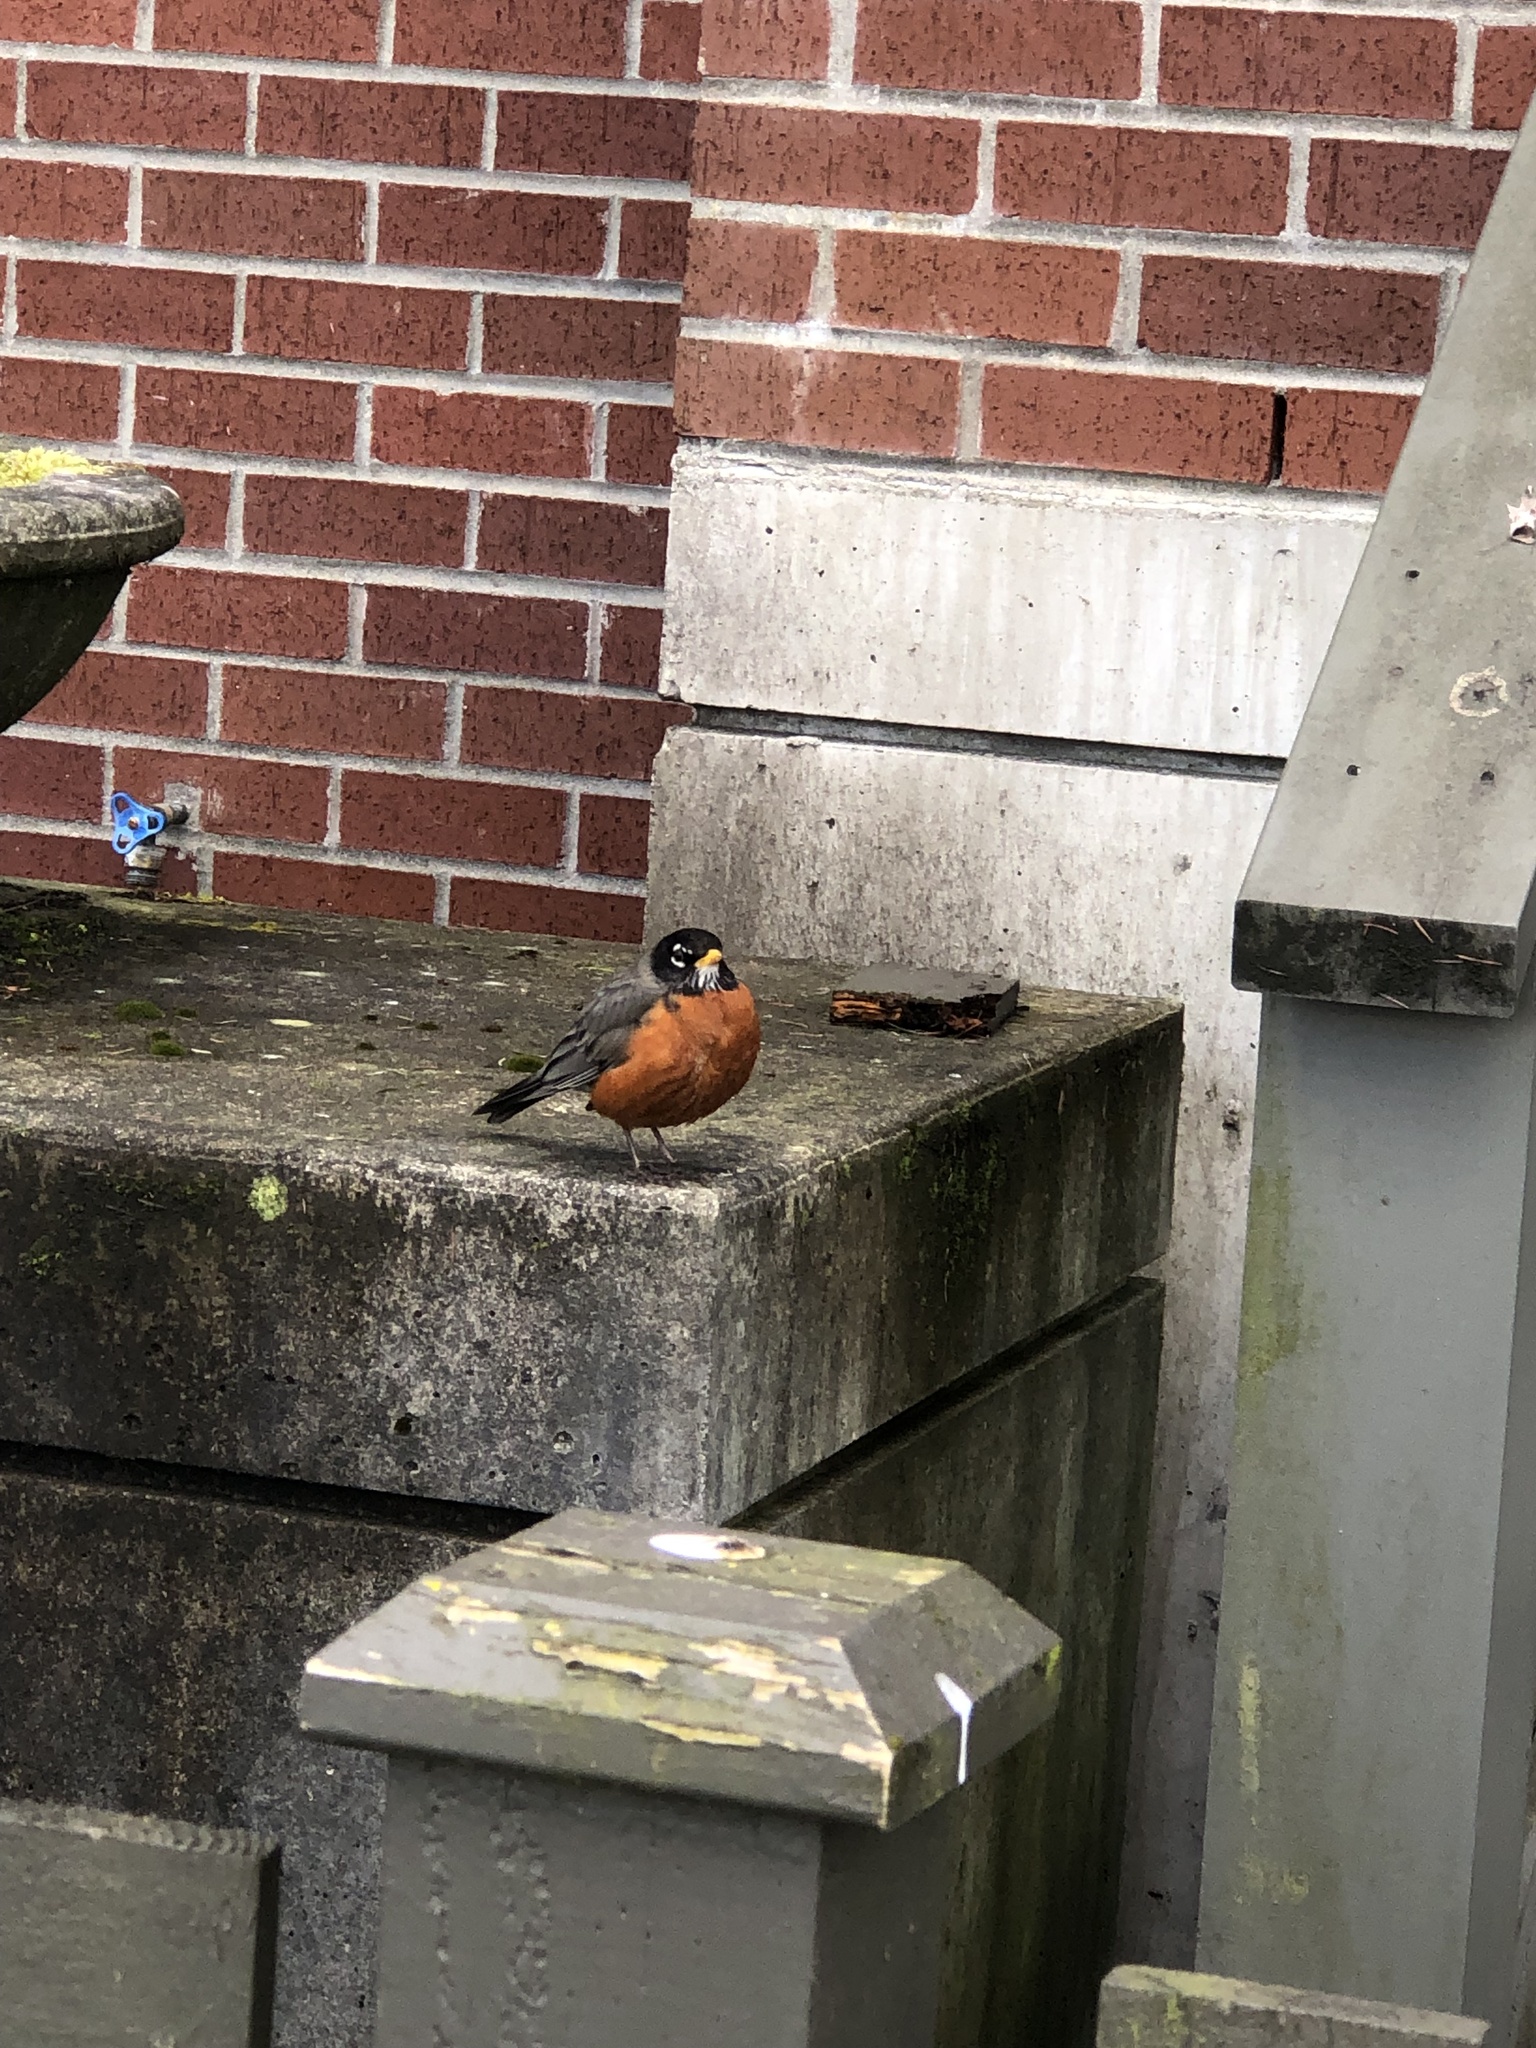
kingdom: Animalia
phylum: Chordata
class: Aves
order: Passeriformes
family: Turdidae
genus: Turdus
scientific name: Turdus migratorius
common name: American robin
